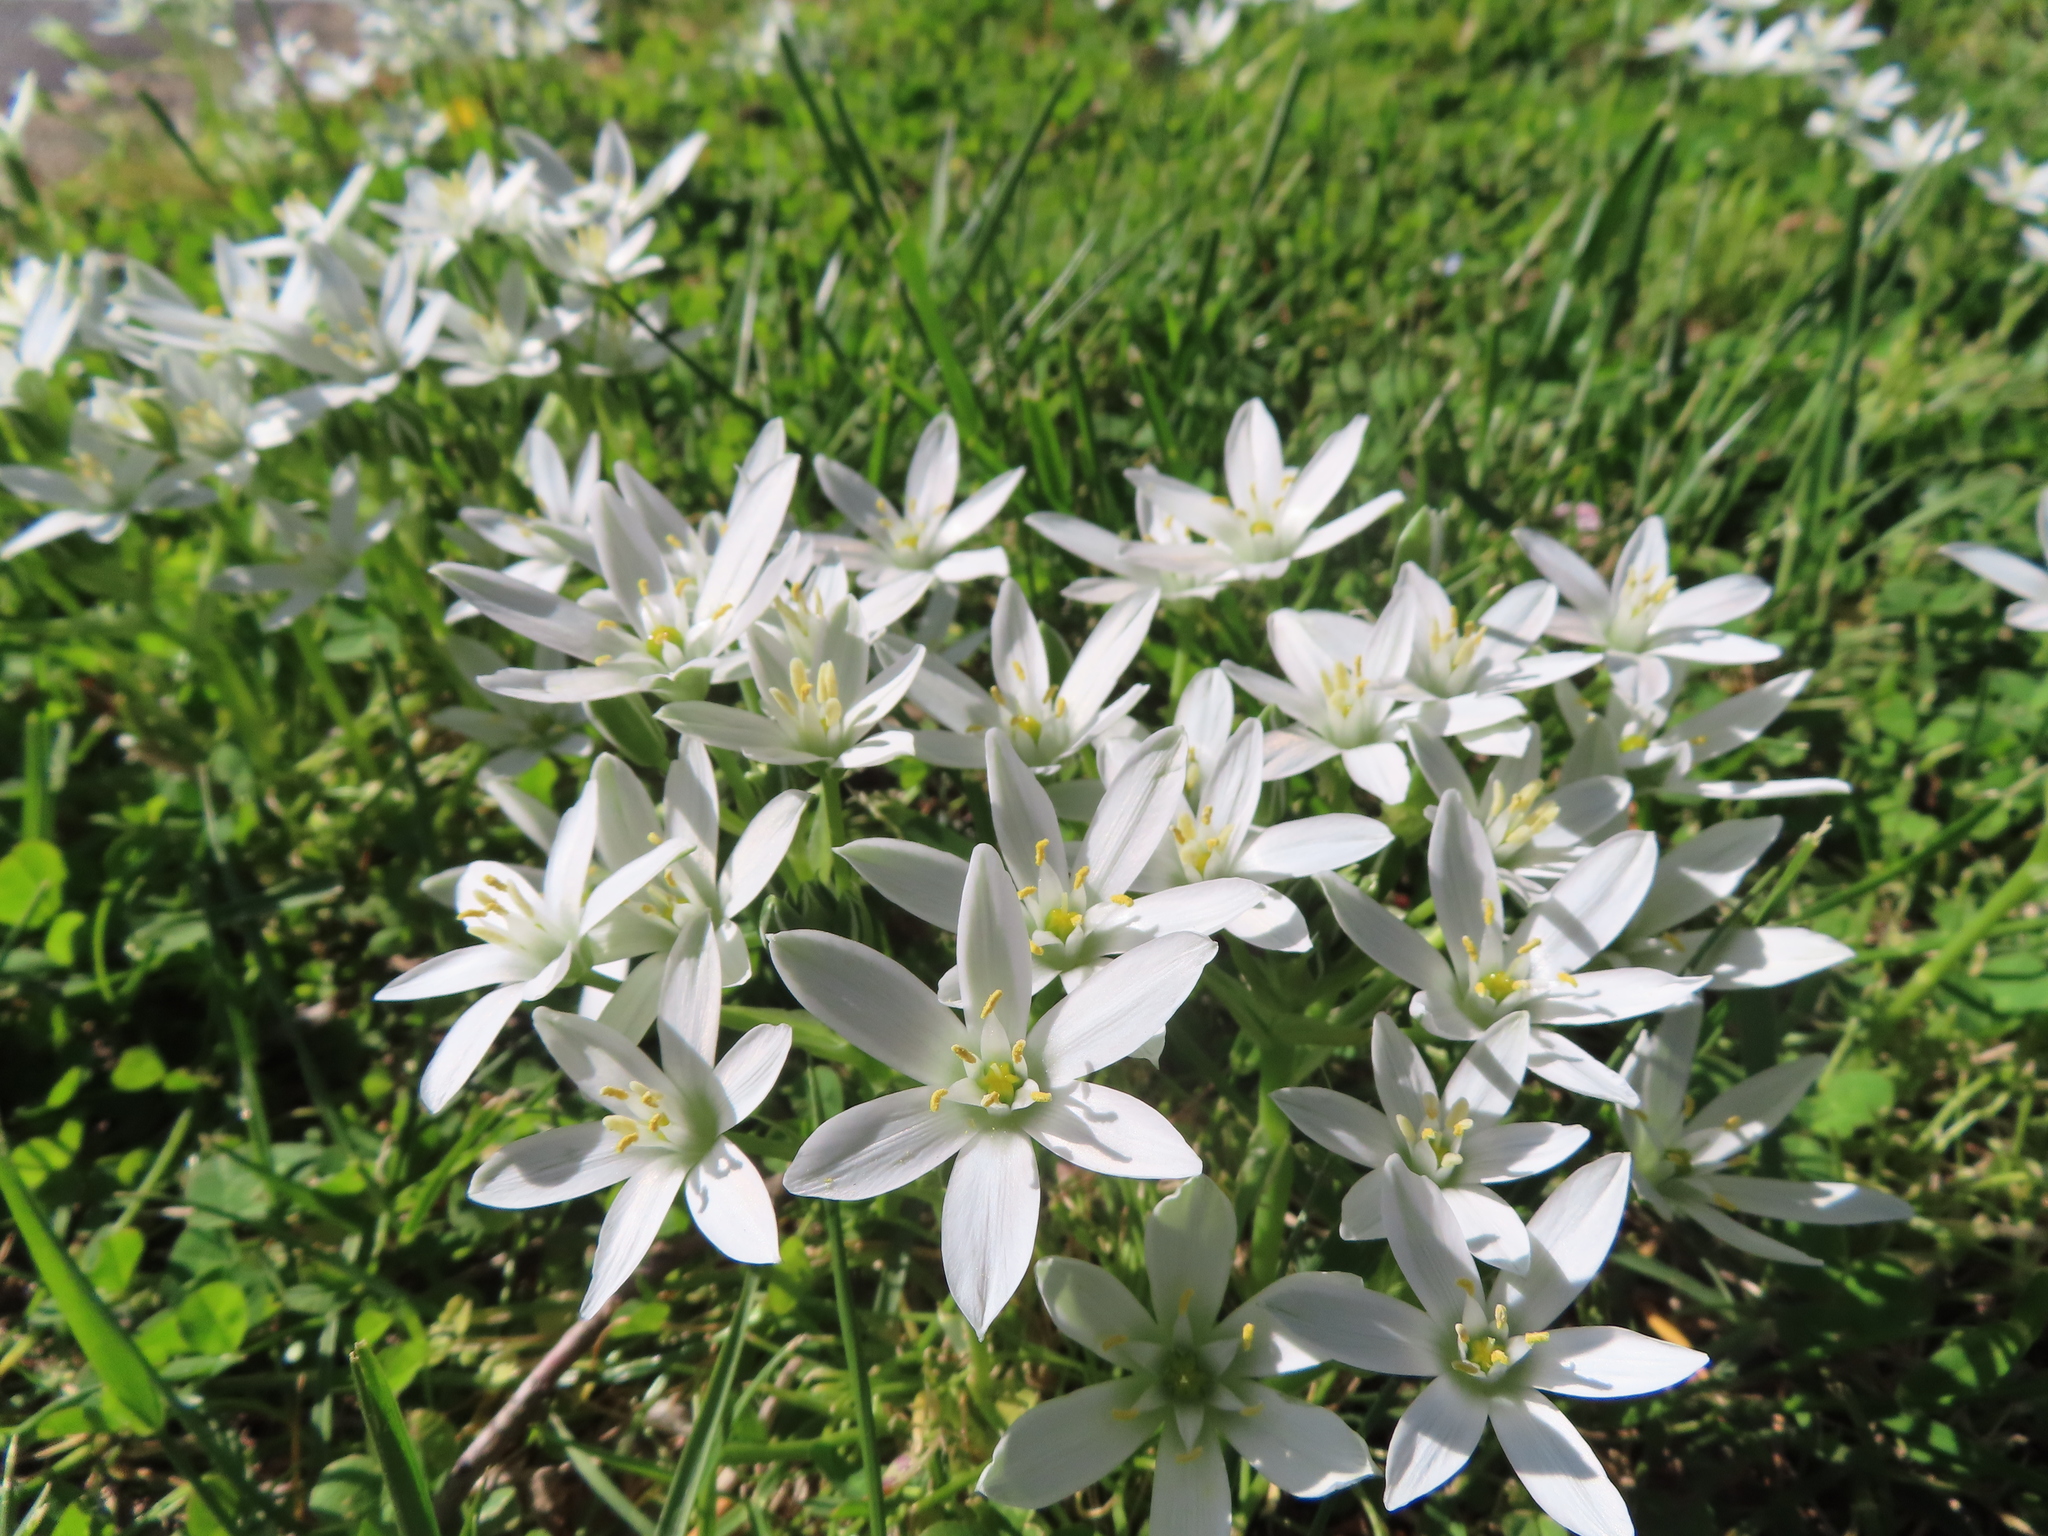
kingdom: Plantae
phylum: Tracheophyta
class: Liliopsida
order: Asparagales
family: Asparagaceae
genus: Ornithogalum
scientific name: Ornithogalum umbellatum
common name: Garden star-of-bethlehem
